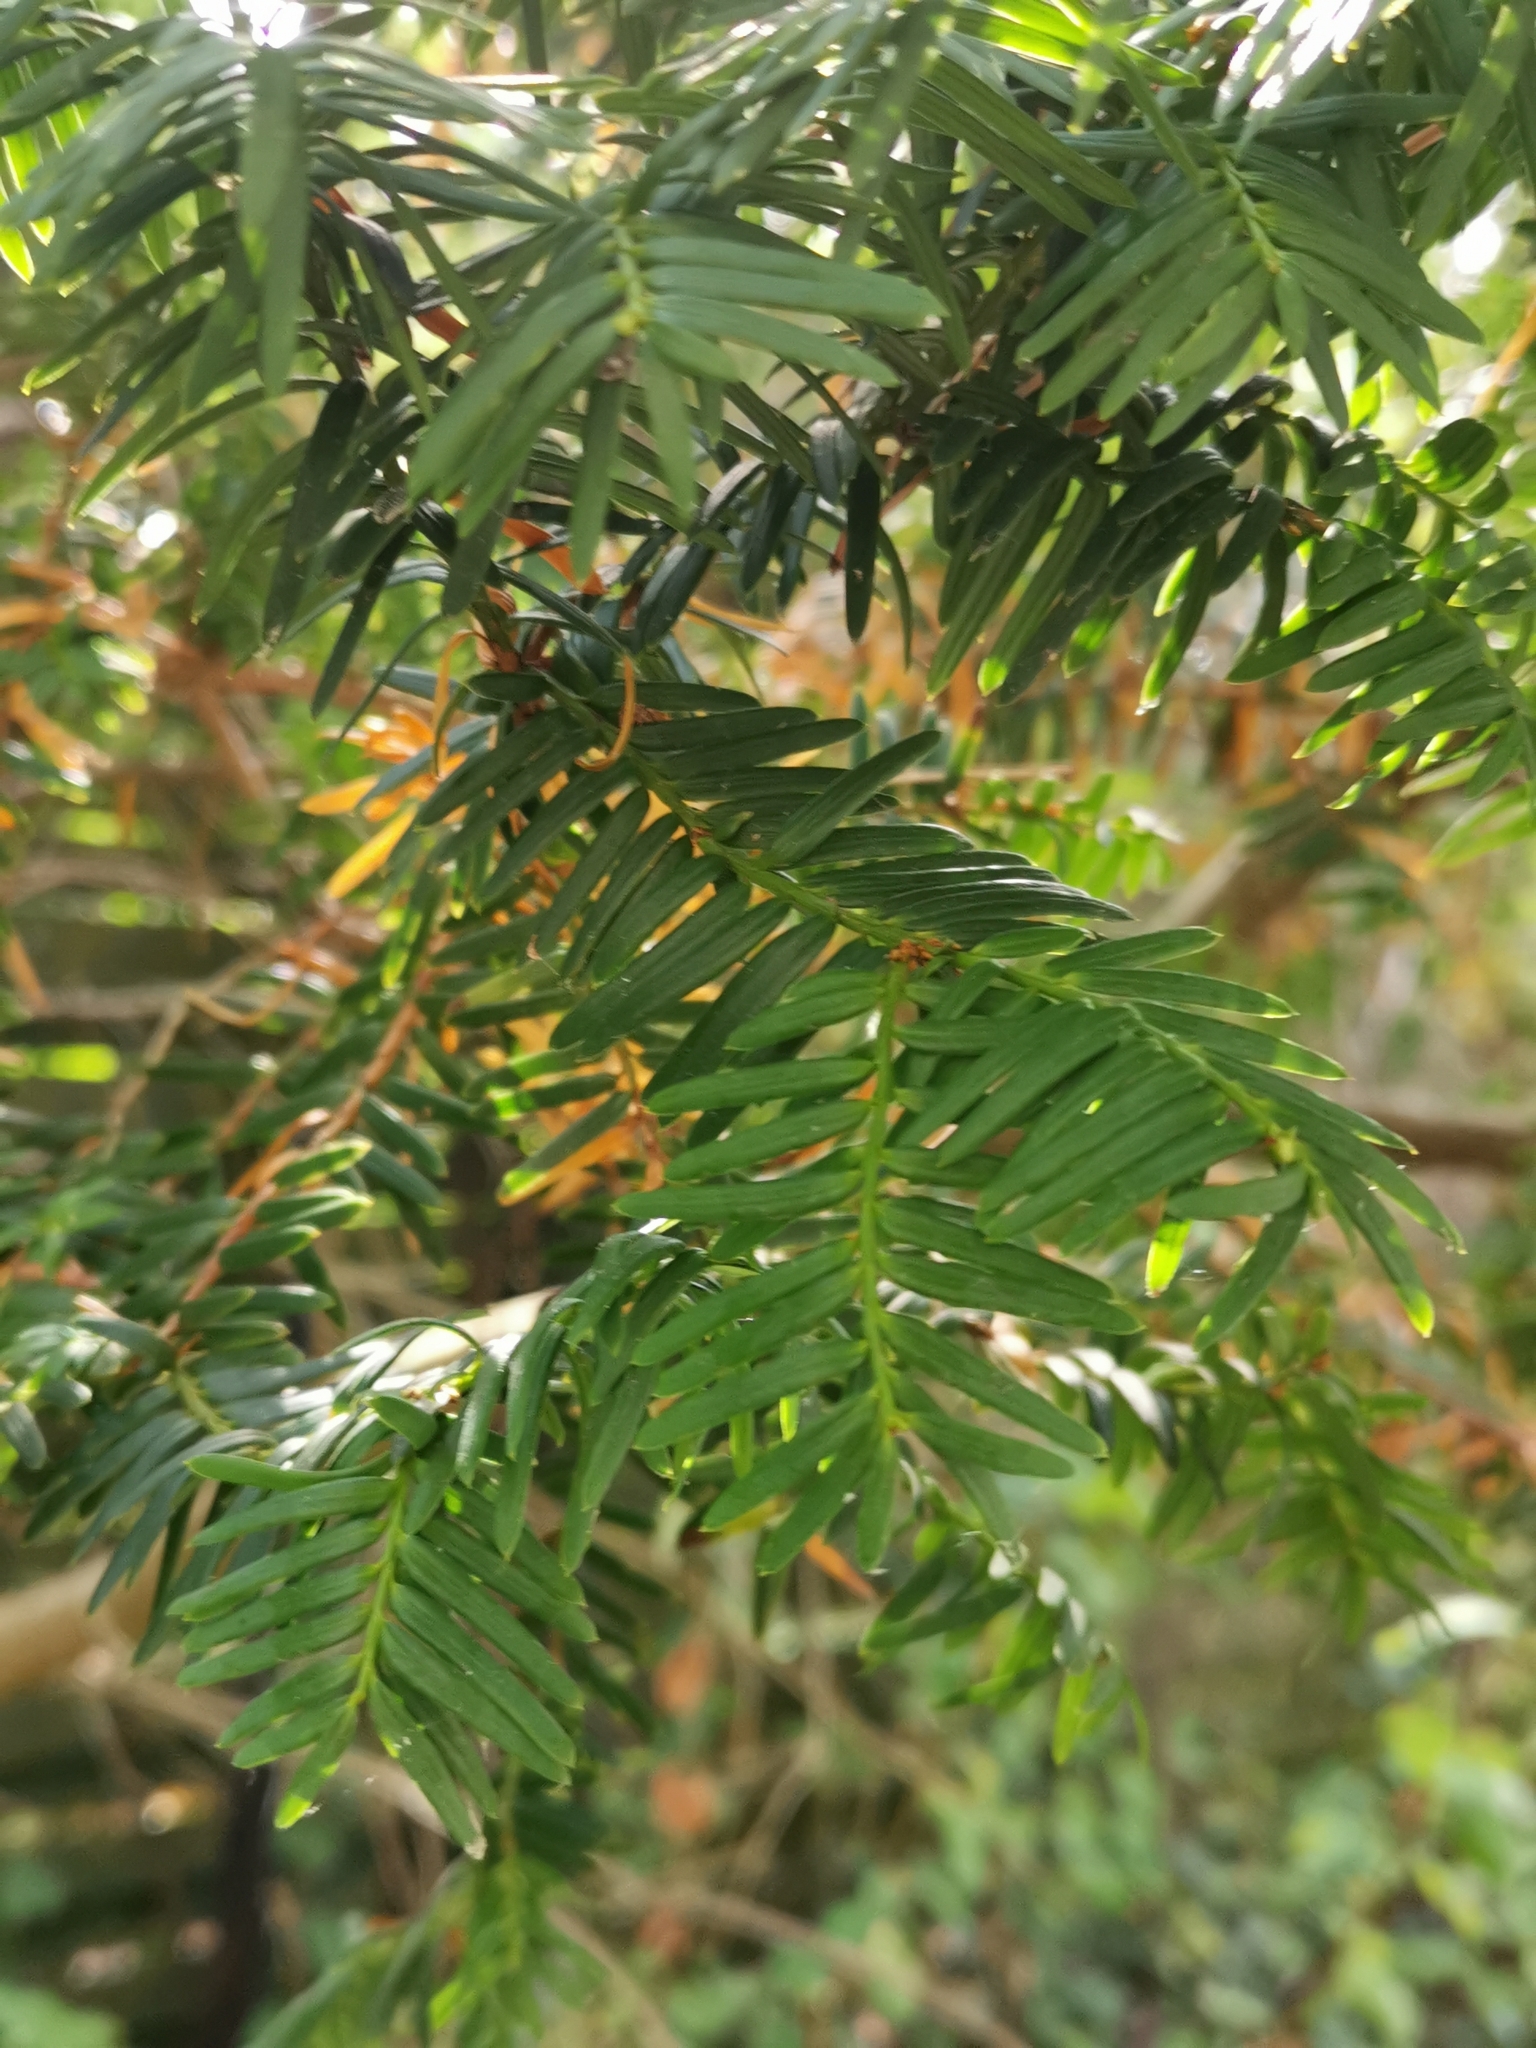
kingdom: Plantae
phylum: Tracheophyta
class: Pinopsida
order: Pinales
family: Taxaceae
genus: Taxus
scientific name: Taxus baccata
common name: Yew
